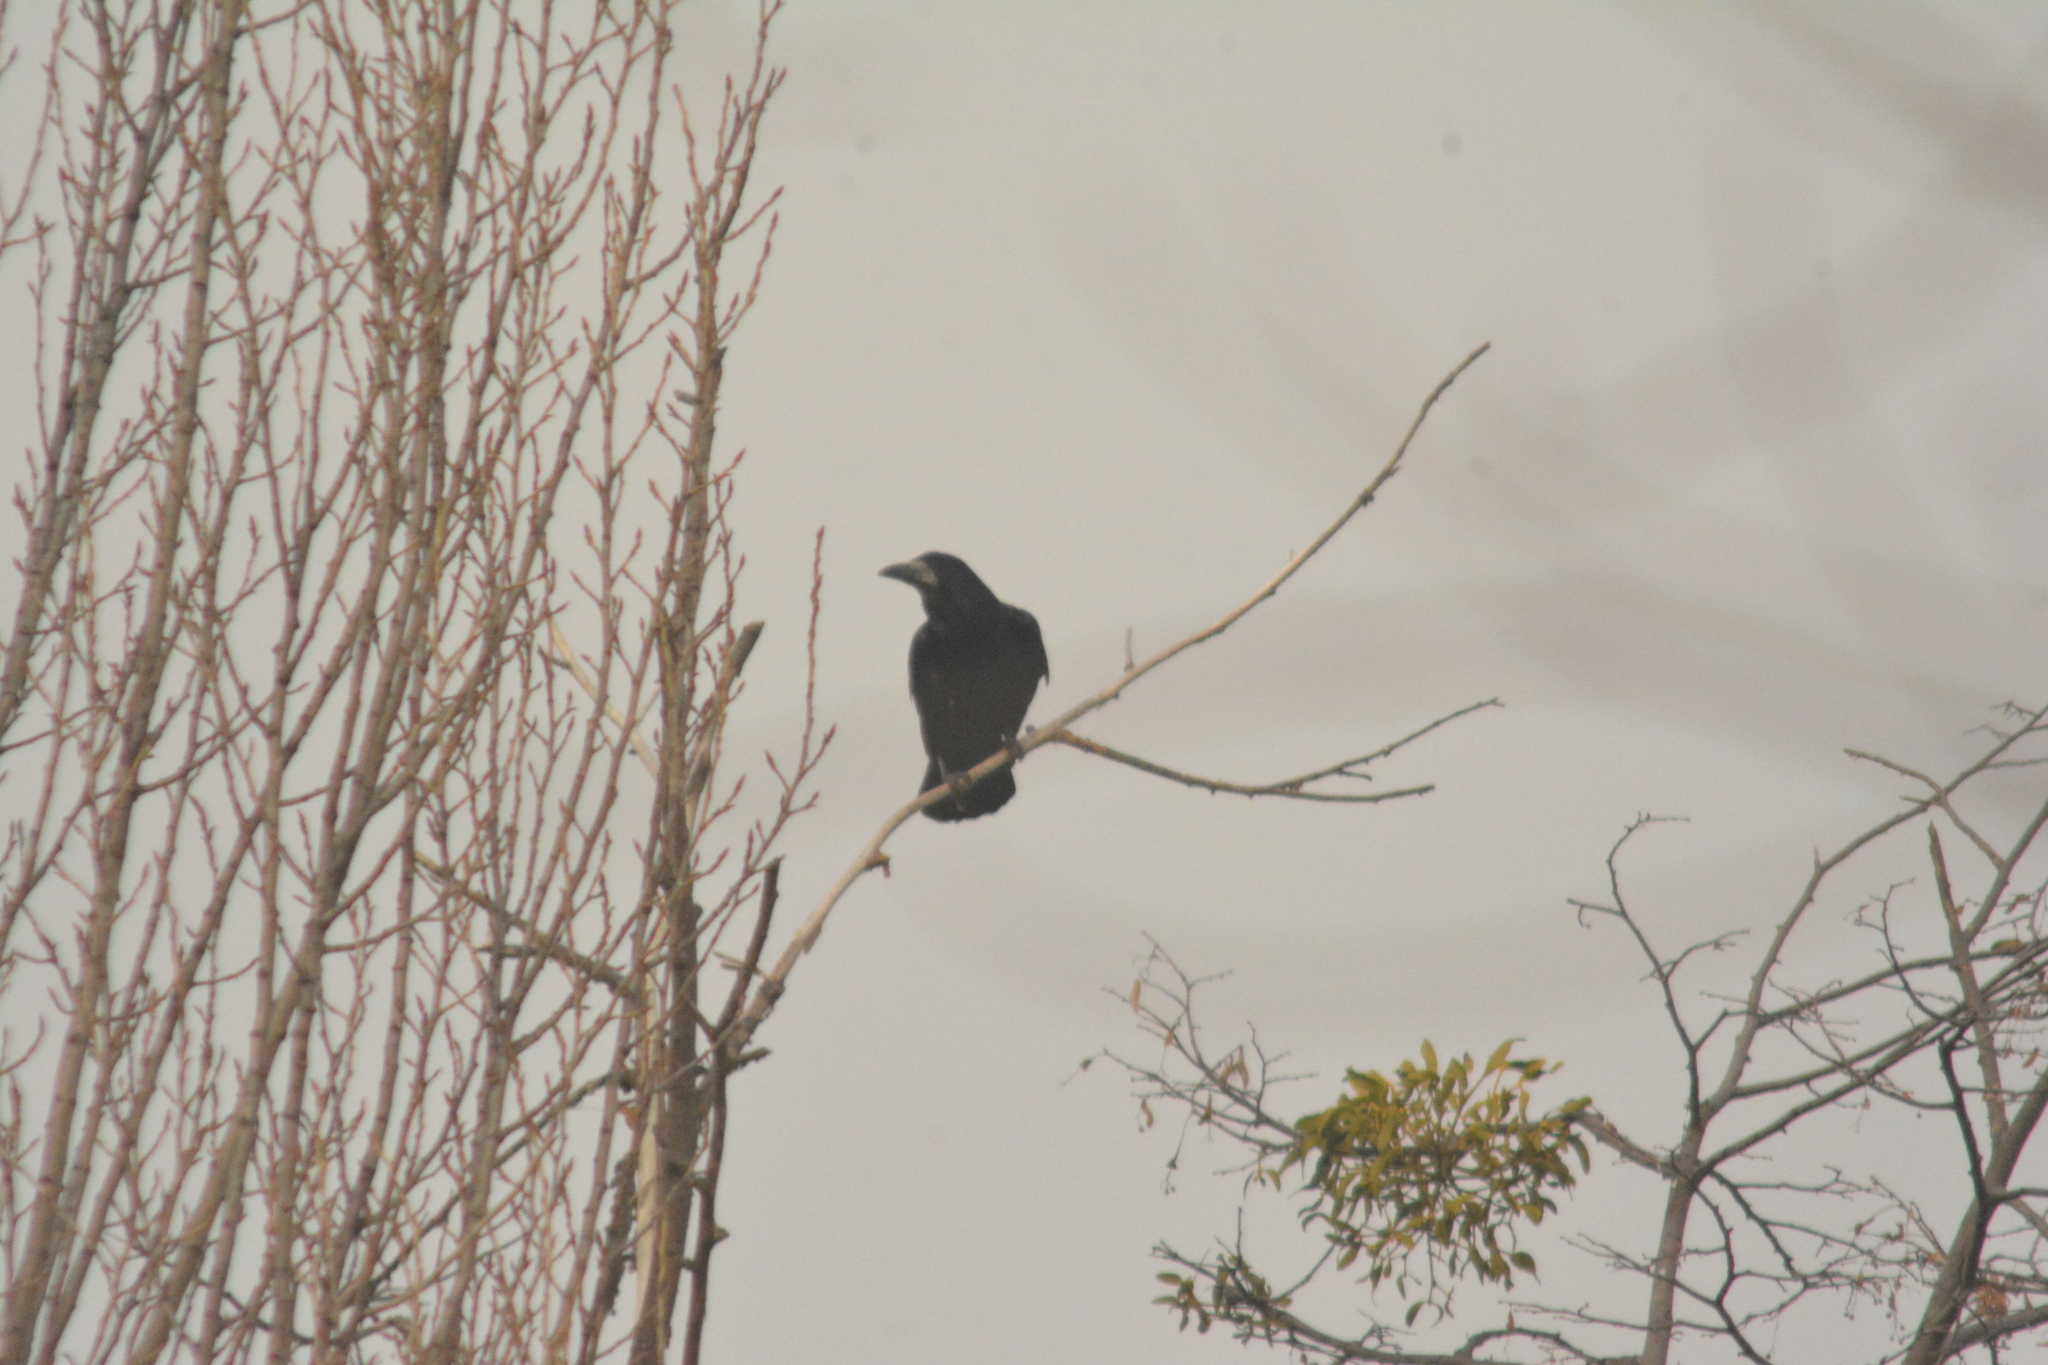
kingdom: Animalia
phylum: Chordata
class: Aves
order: Passeriformes
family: Corvidae
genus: Corvus
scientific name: Corvus frugilegus
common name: Rook
